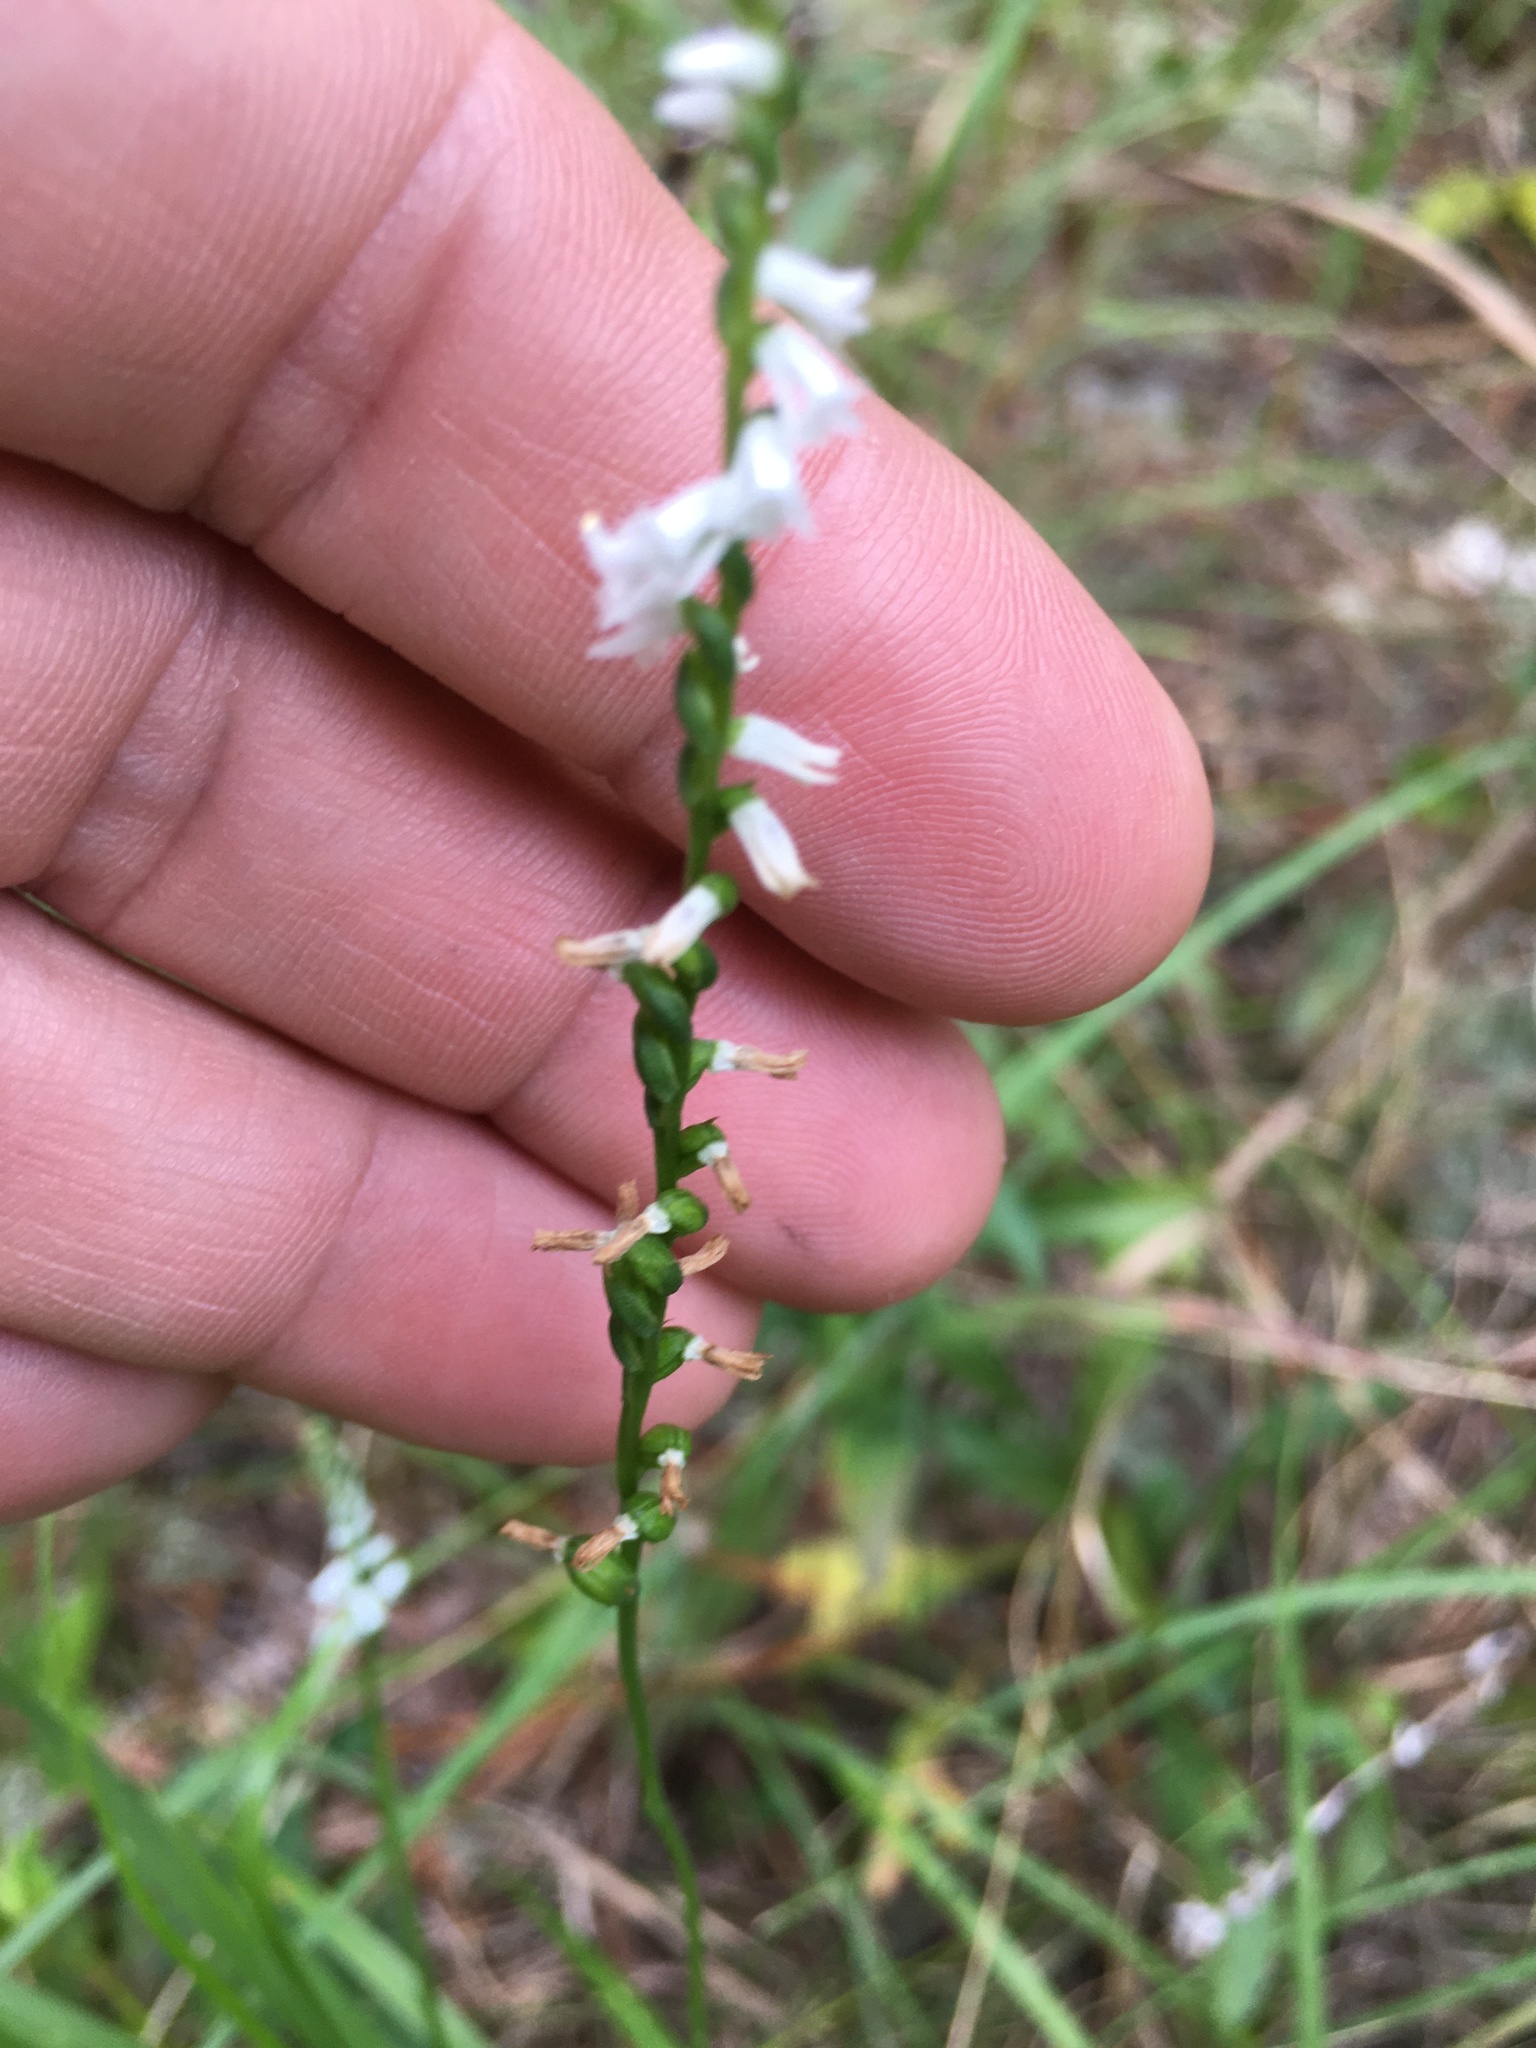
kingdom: Plantae
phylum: Tracheophyta
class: Liliopsida
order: Asparagales
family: Orchidaceae
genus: Spiranthes
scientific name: Spiranthes tuberosa
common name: Little ladies'-tresses
